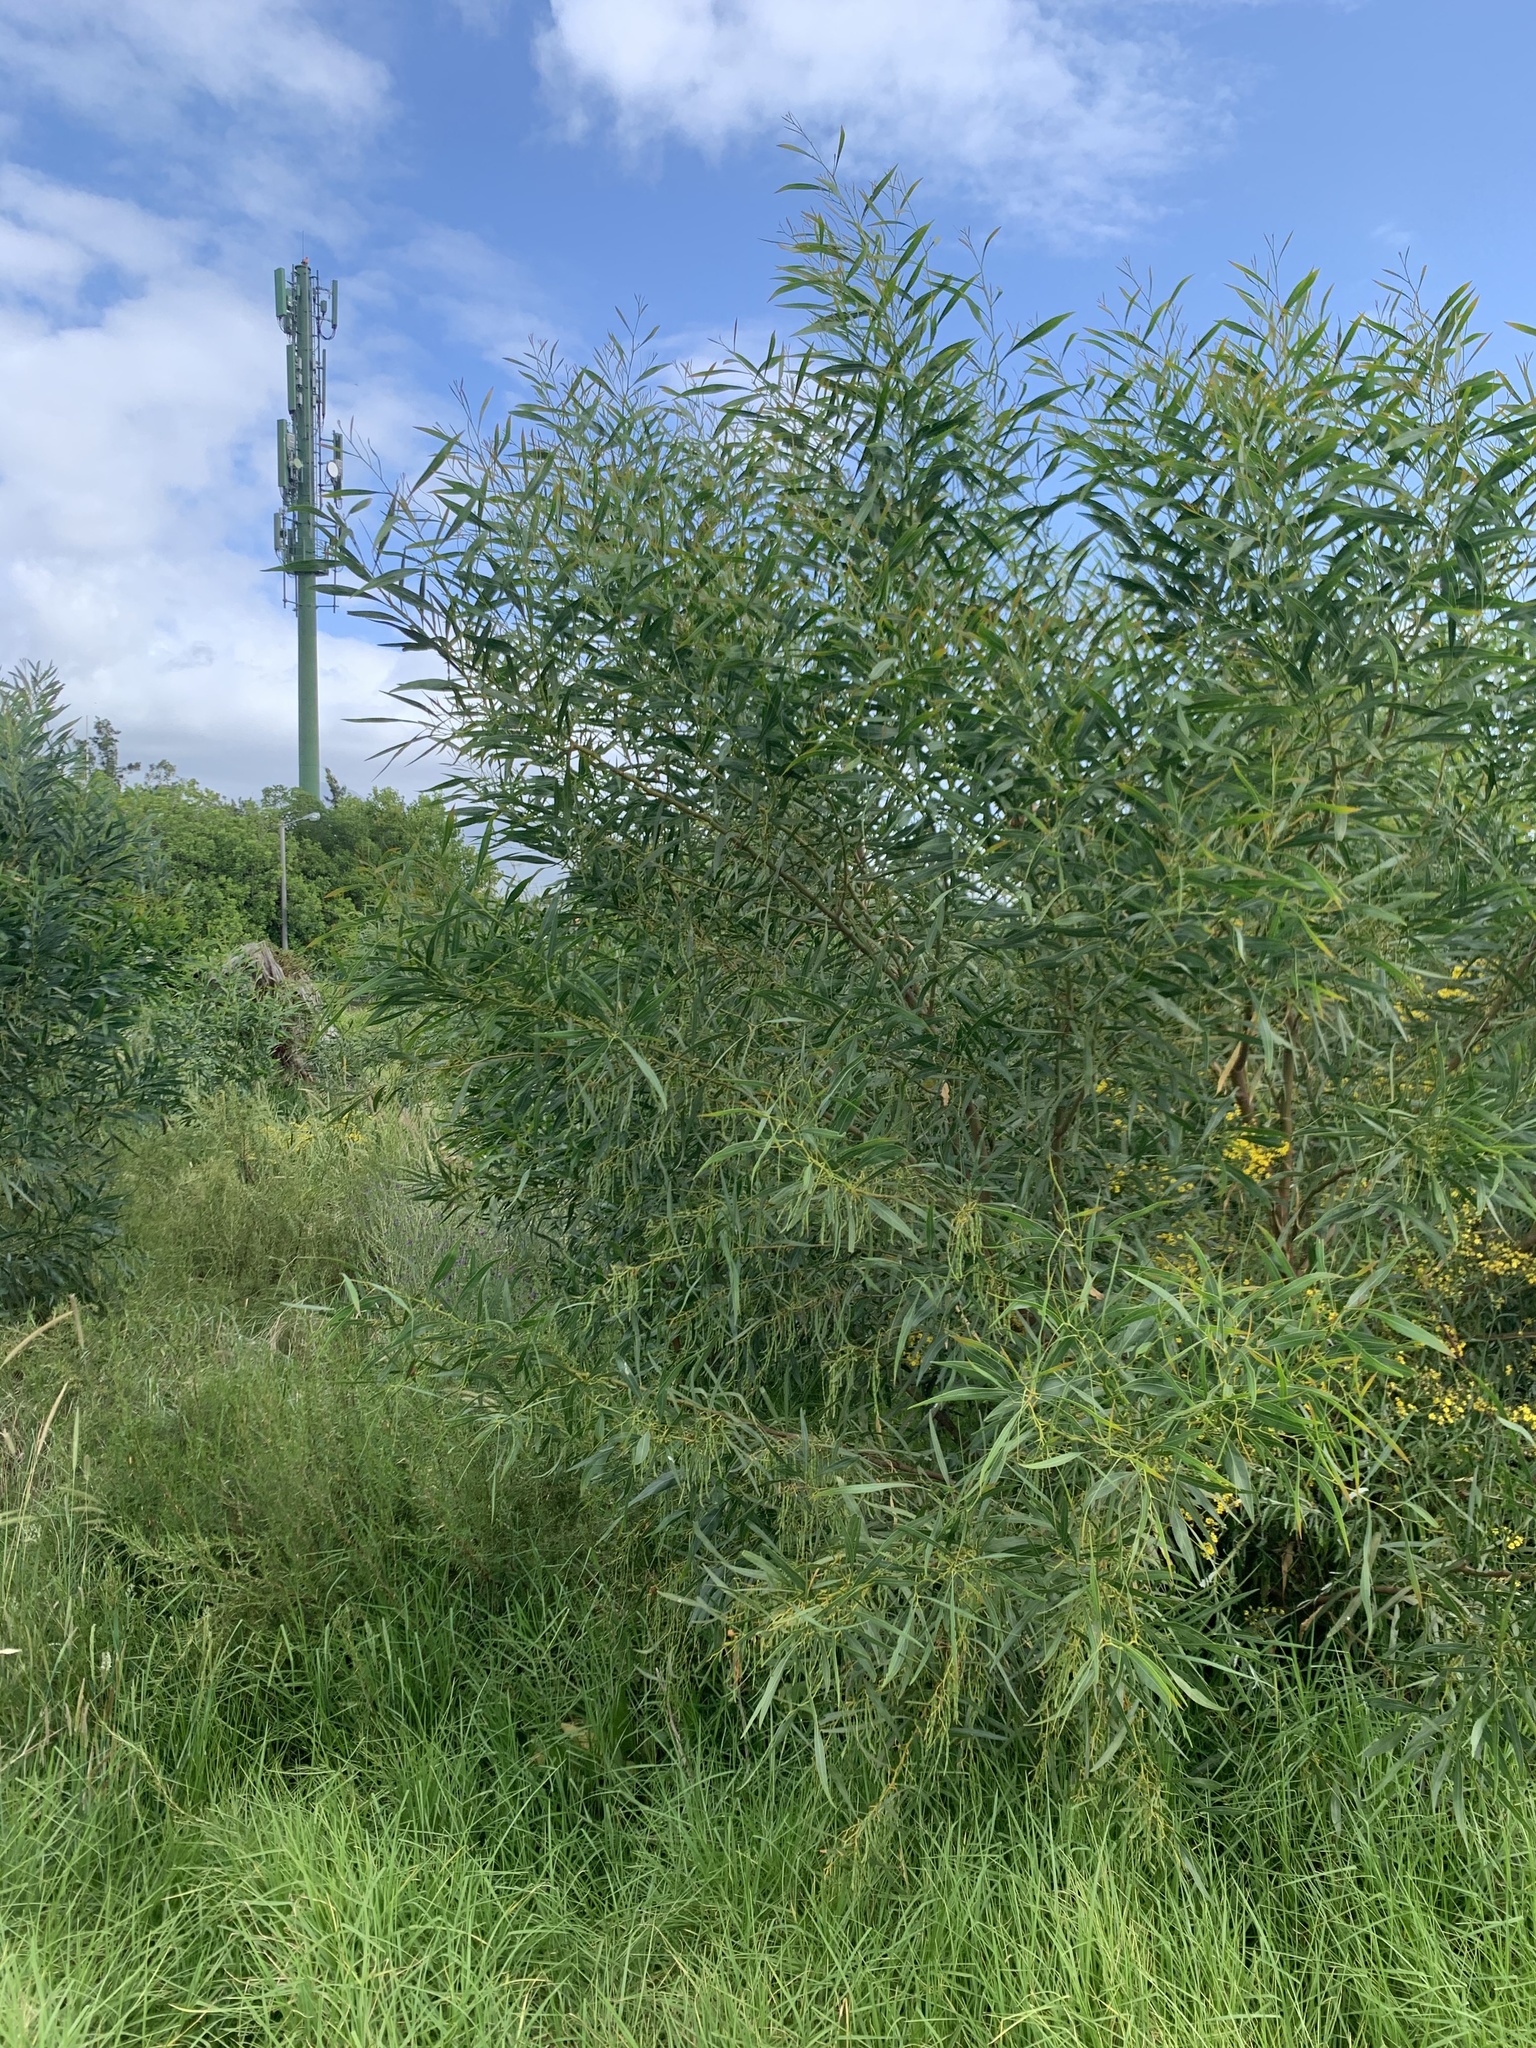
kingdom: Plantae
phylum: Tracheophyta
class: Magnoliopsida
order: Fabales
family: Fabaceae
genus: Acacia
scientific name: Acacia saligna
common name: Orange wattle
